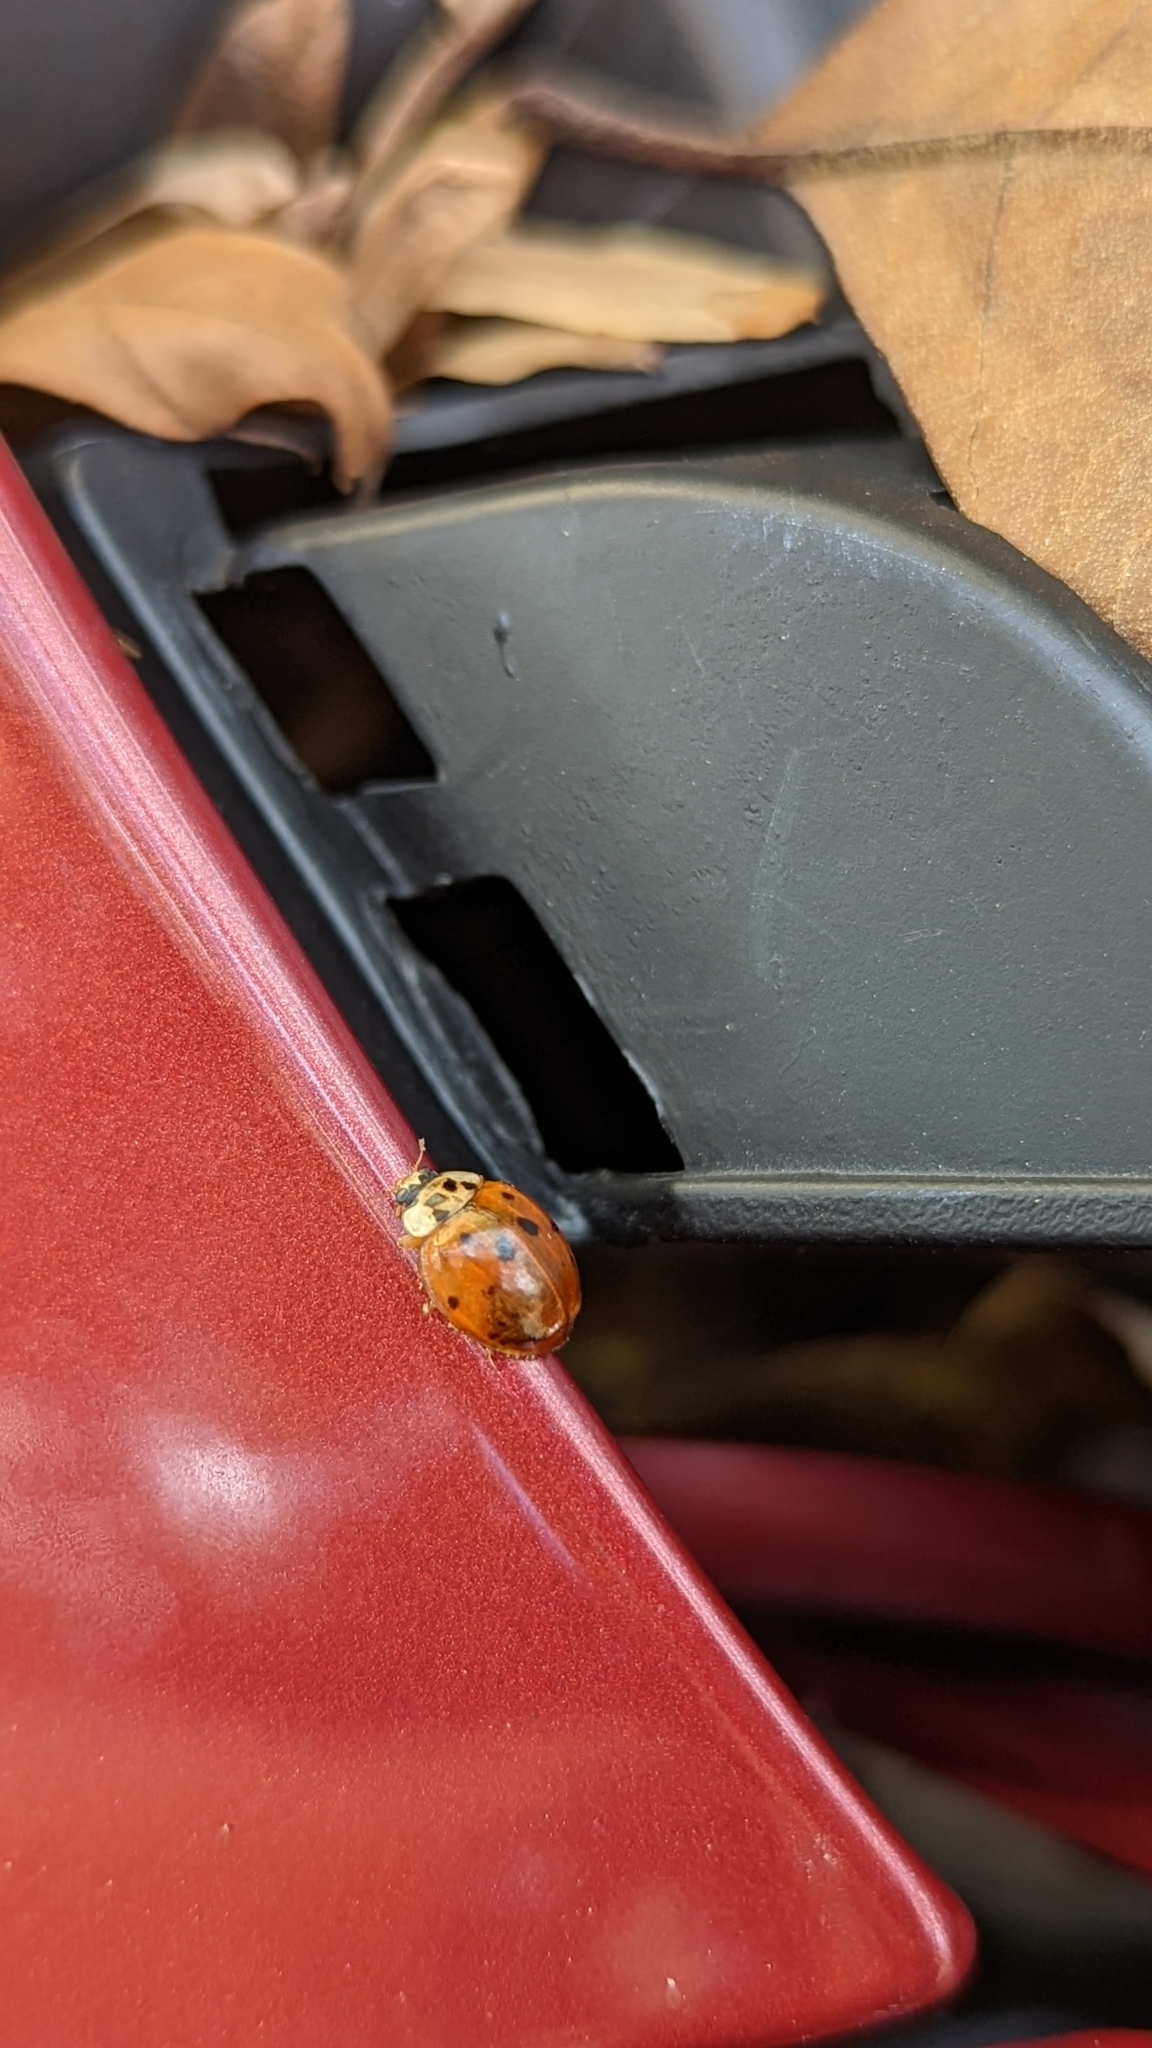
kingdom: Animalia
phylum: Arthropoda
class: Insecta
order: Coleoptera
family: Coccinellidae
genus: Harmonia
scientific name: Harmonia axyridis
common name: Harlequin ladybird
